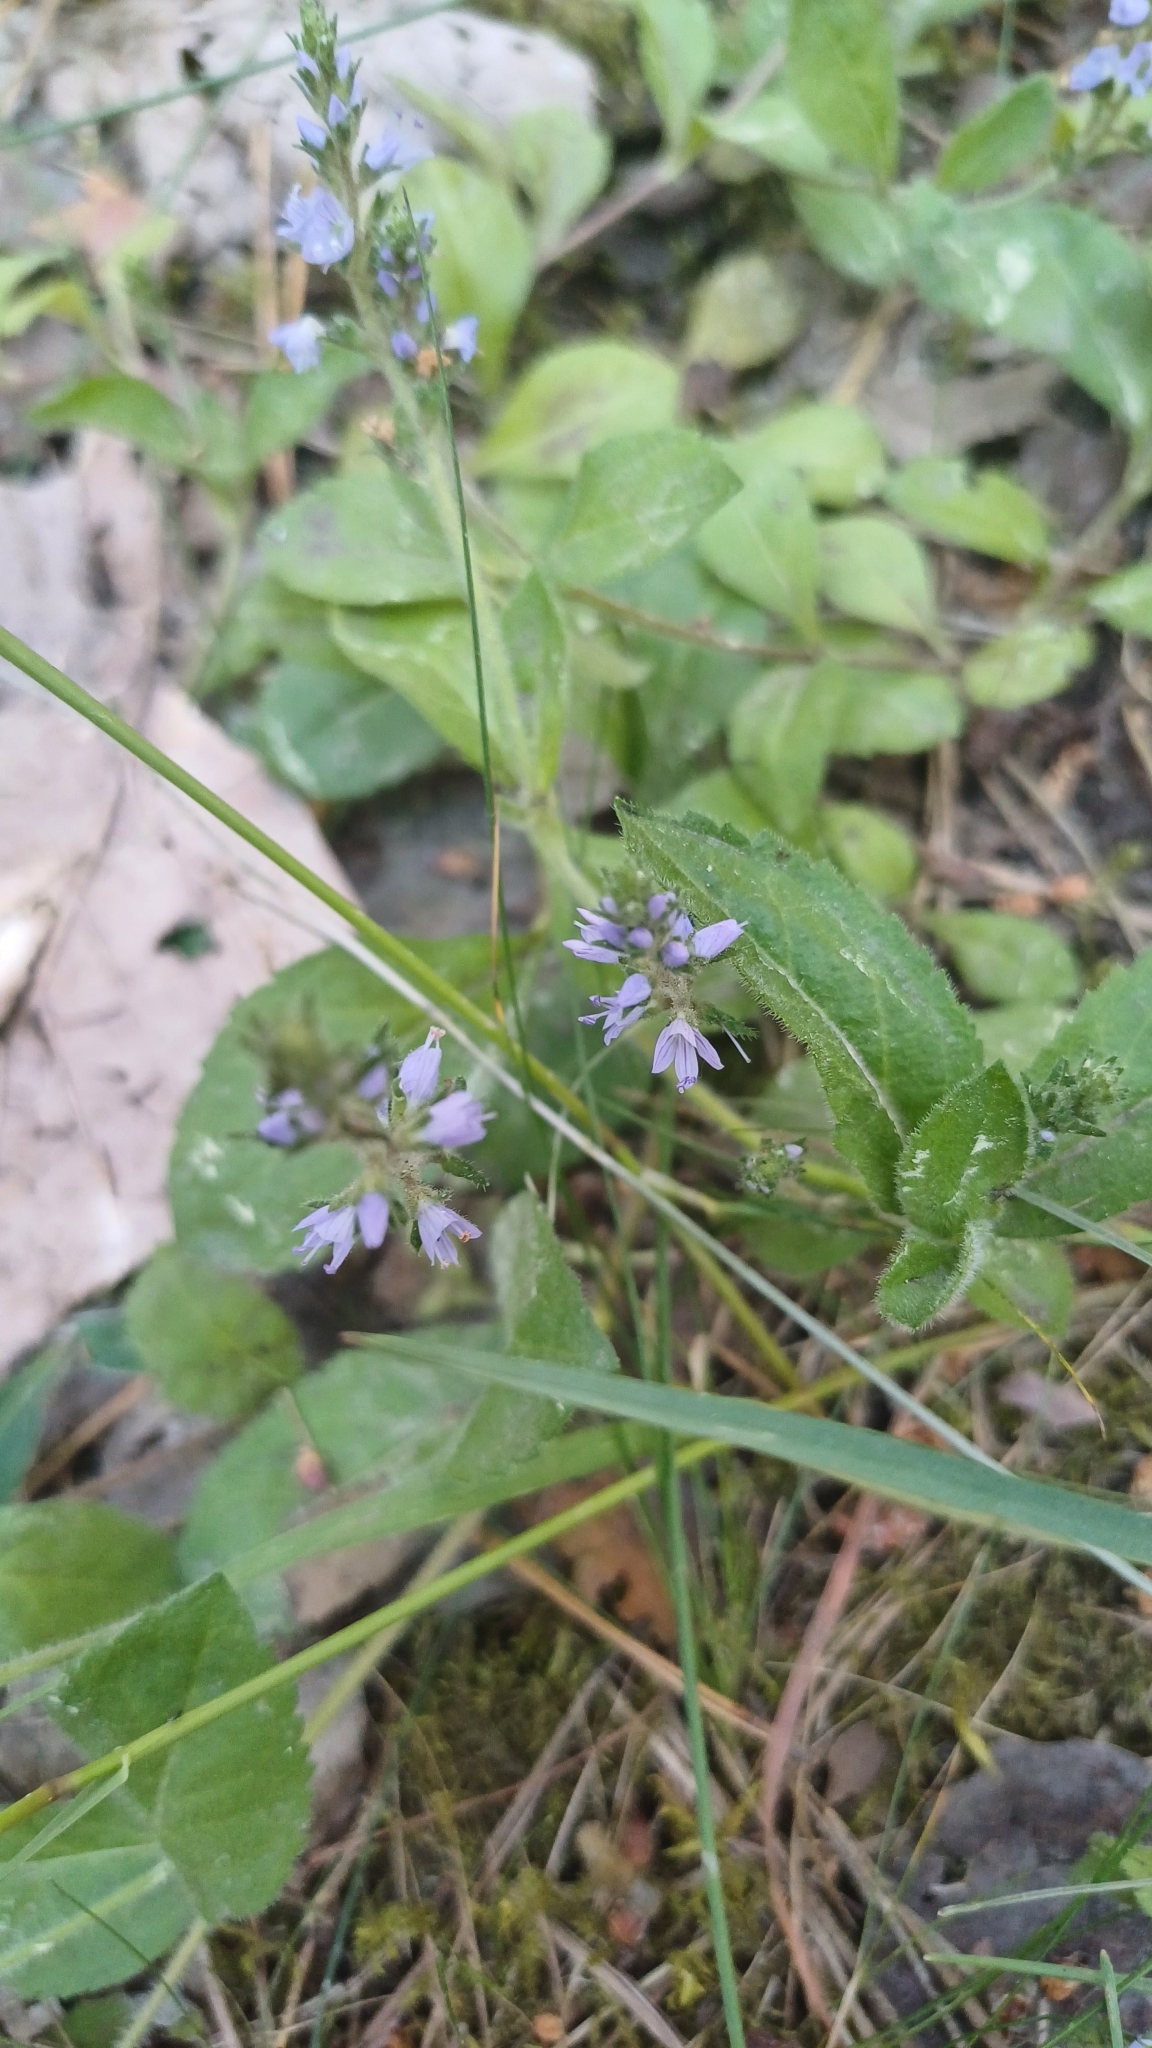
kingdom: Plantae
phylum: Tracheophyta
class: Magnoliopsida
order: Lamiales
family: Plantaginaceae
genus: Veronica
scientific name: Veronica officinalis
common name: Common speedwell
